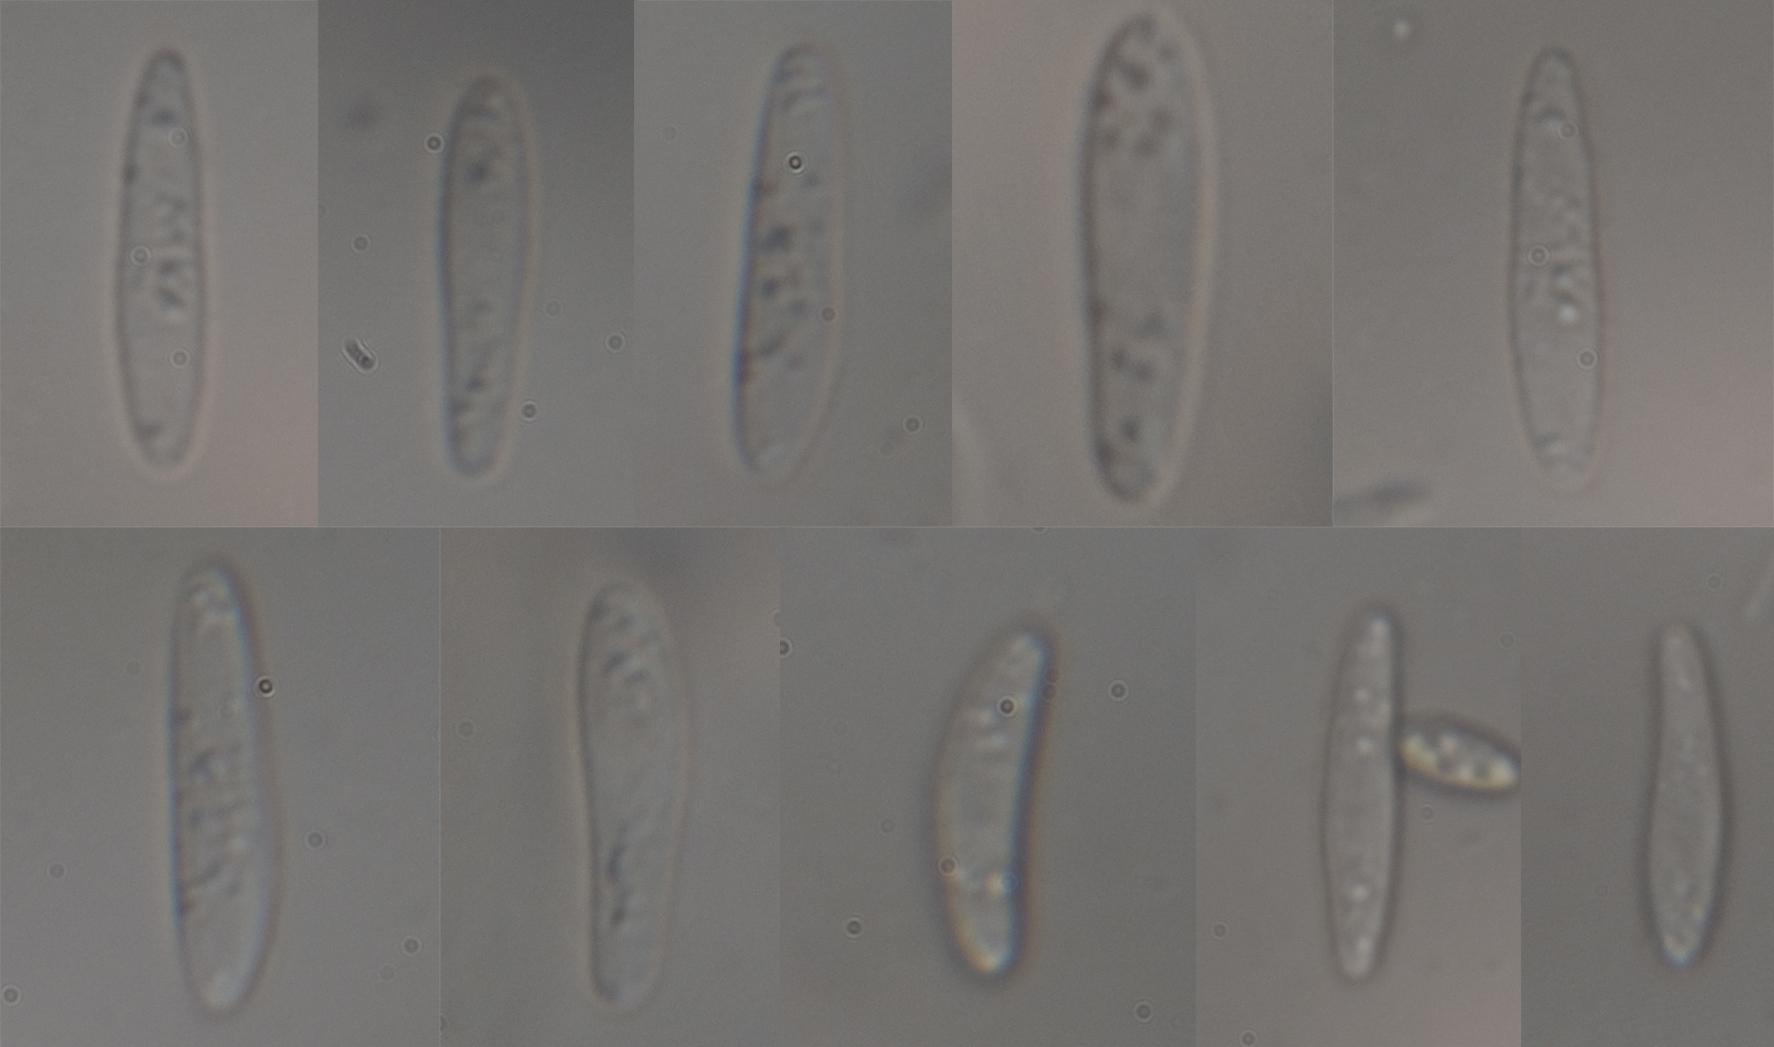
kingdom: Fungi
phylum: Ascomycota
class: Leotiomycetes
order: Helotiales
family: Hyaloscyphaceae
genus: Roseodiscus
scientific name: Roseodiscus formosus
